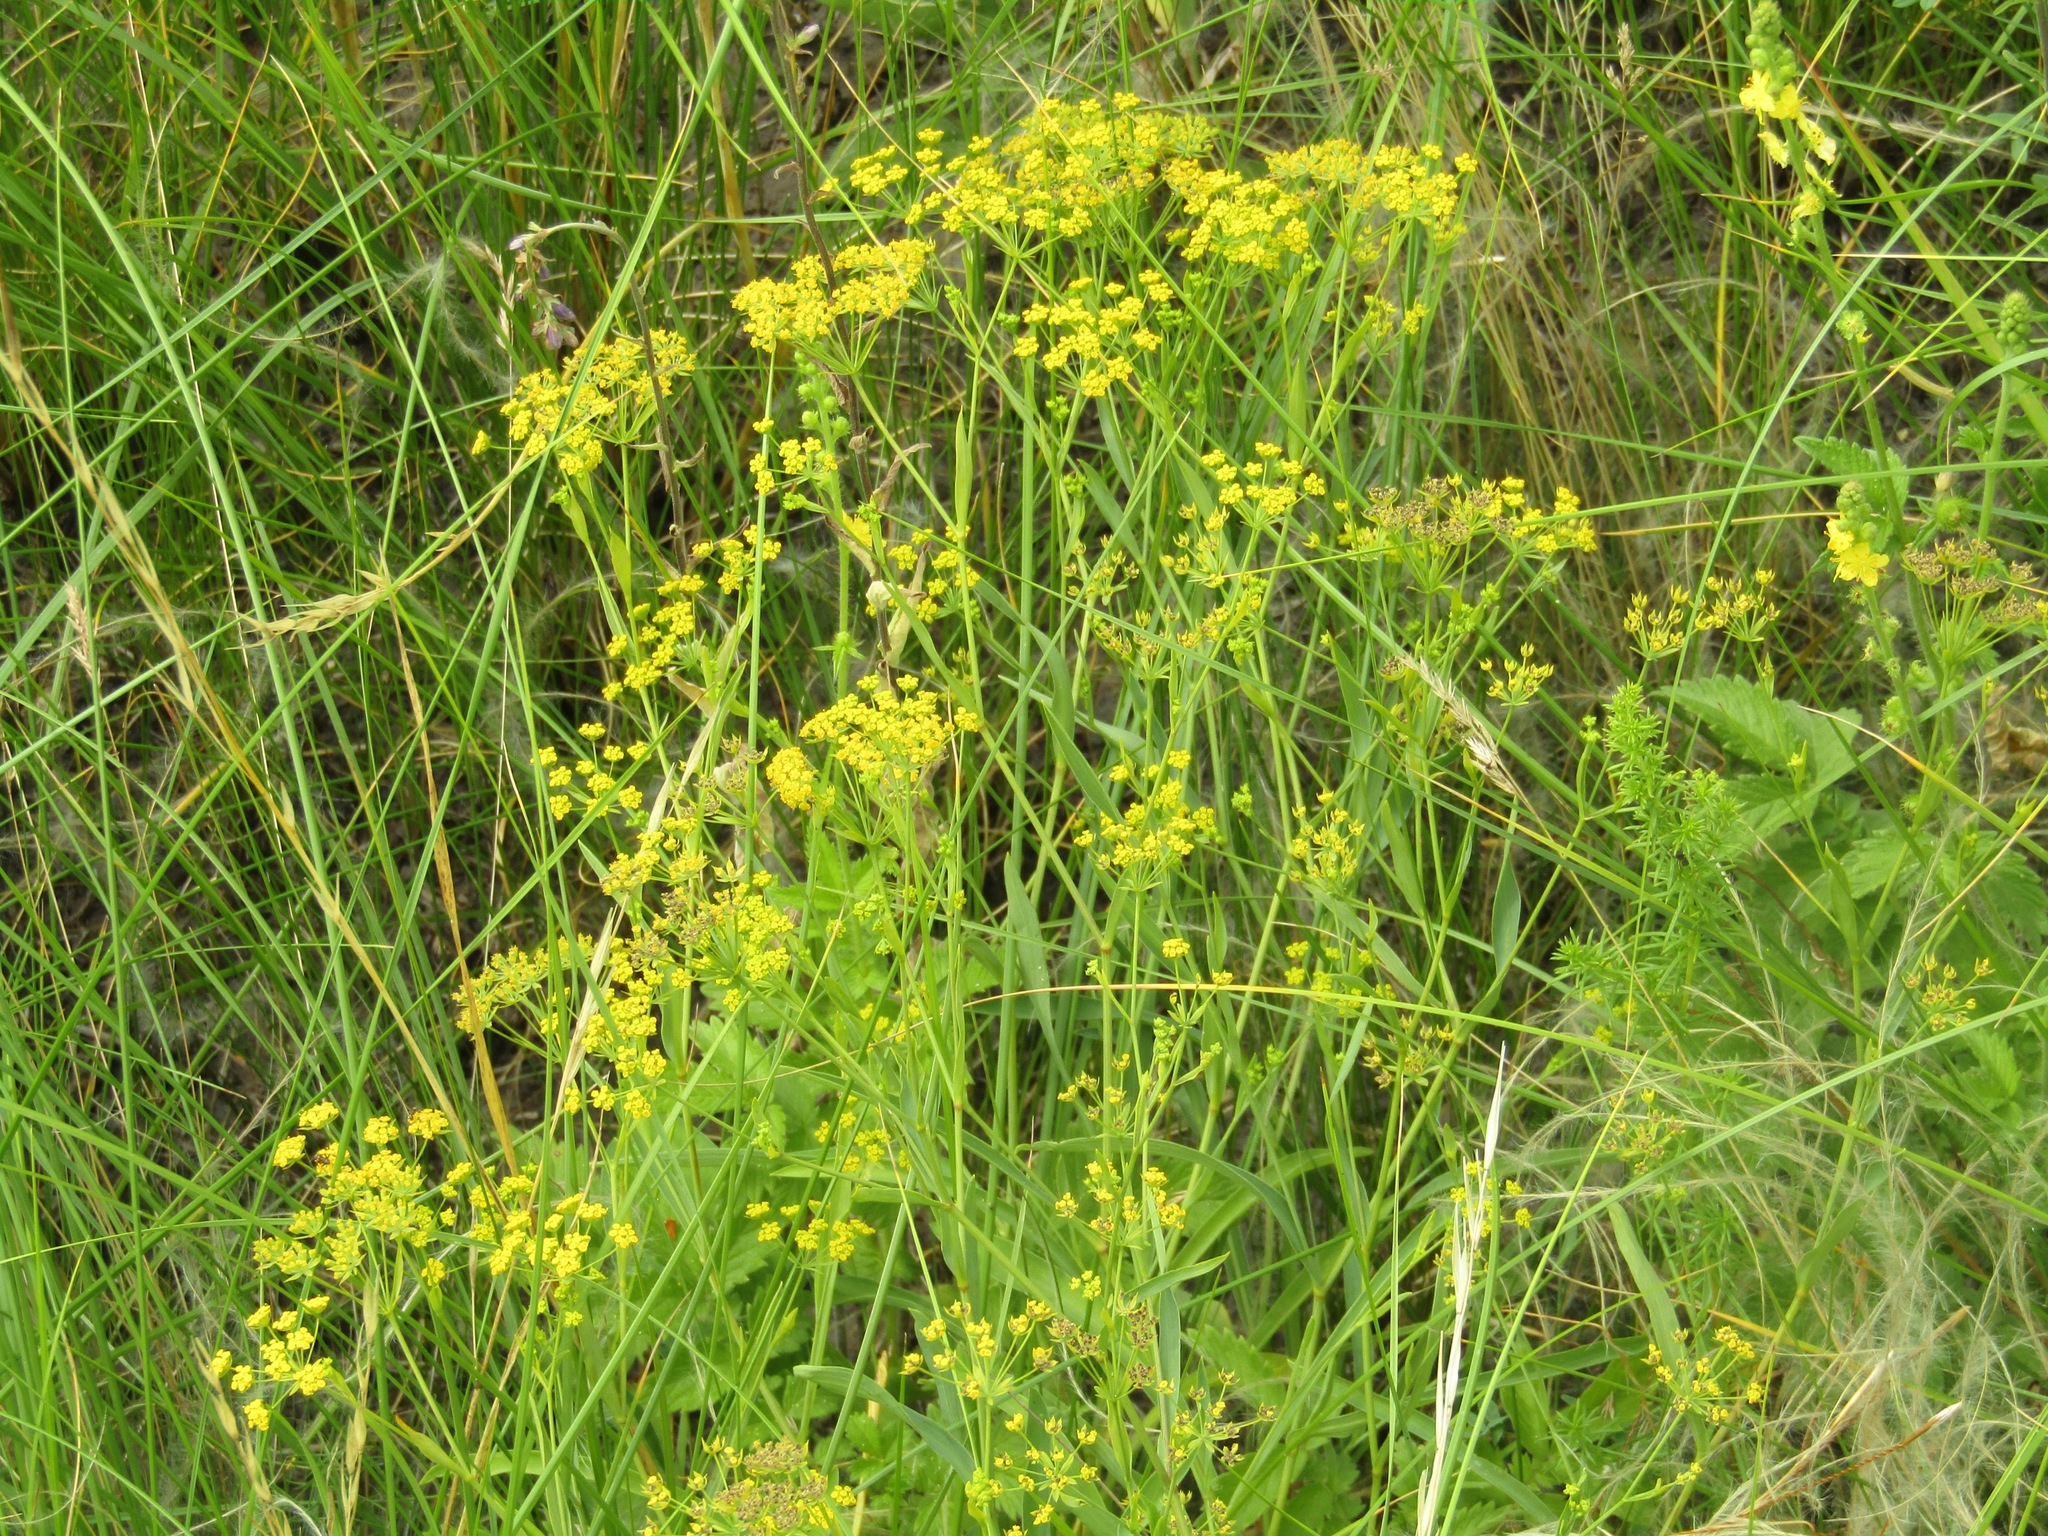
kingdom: Plantae
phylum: Tracheophyta
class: Magnoliopsida
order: Apiales
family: Apiaceae
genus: Pastinaca
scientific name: Pastinaca sativa
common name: Wild parsnip
